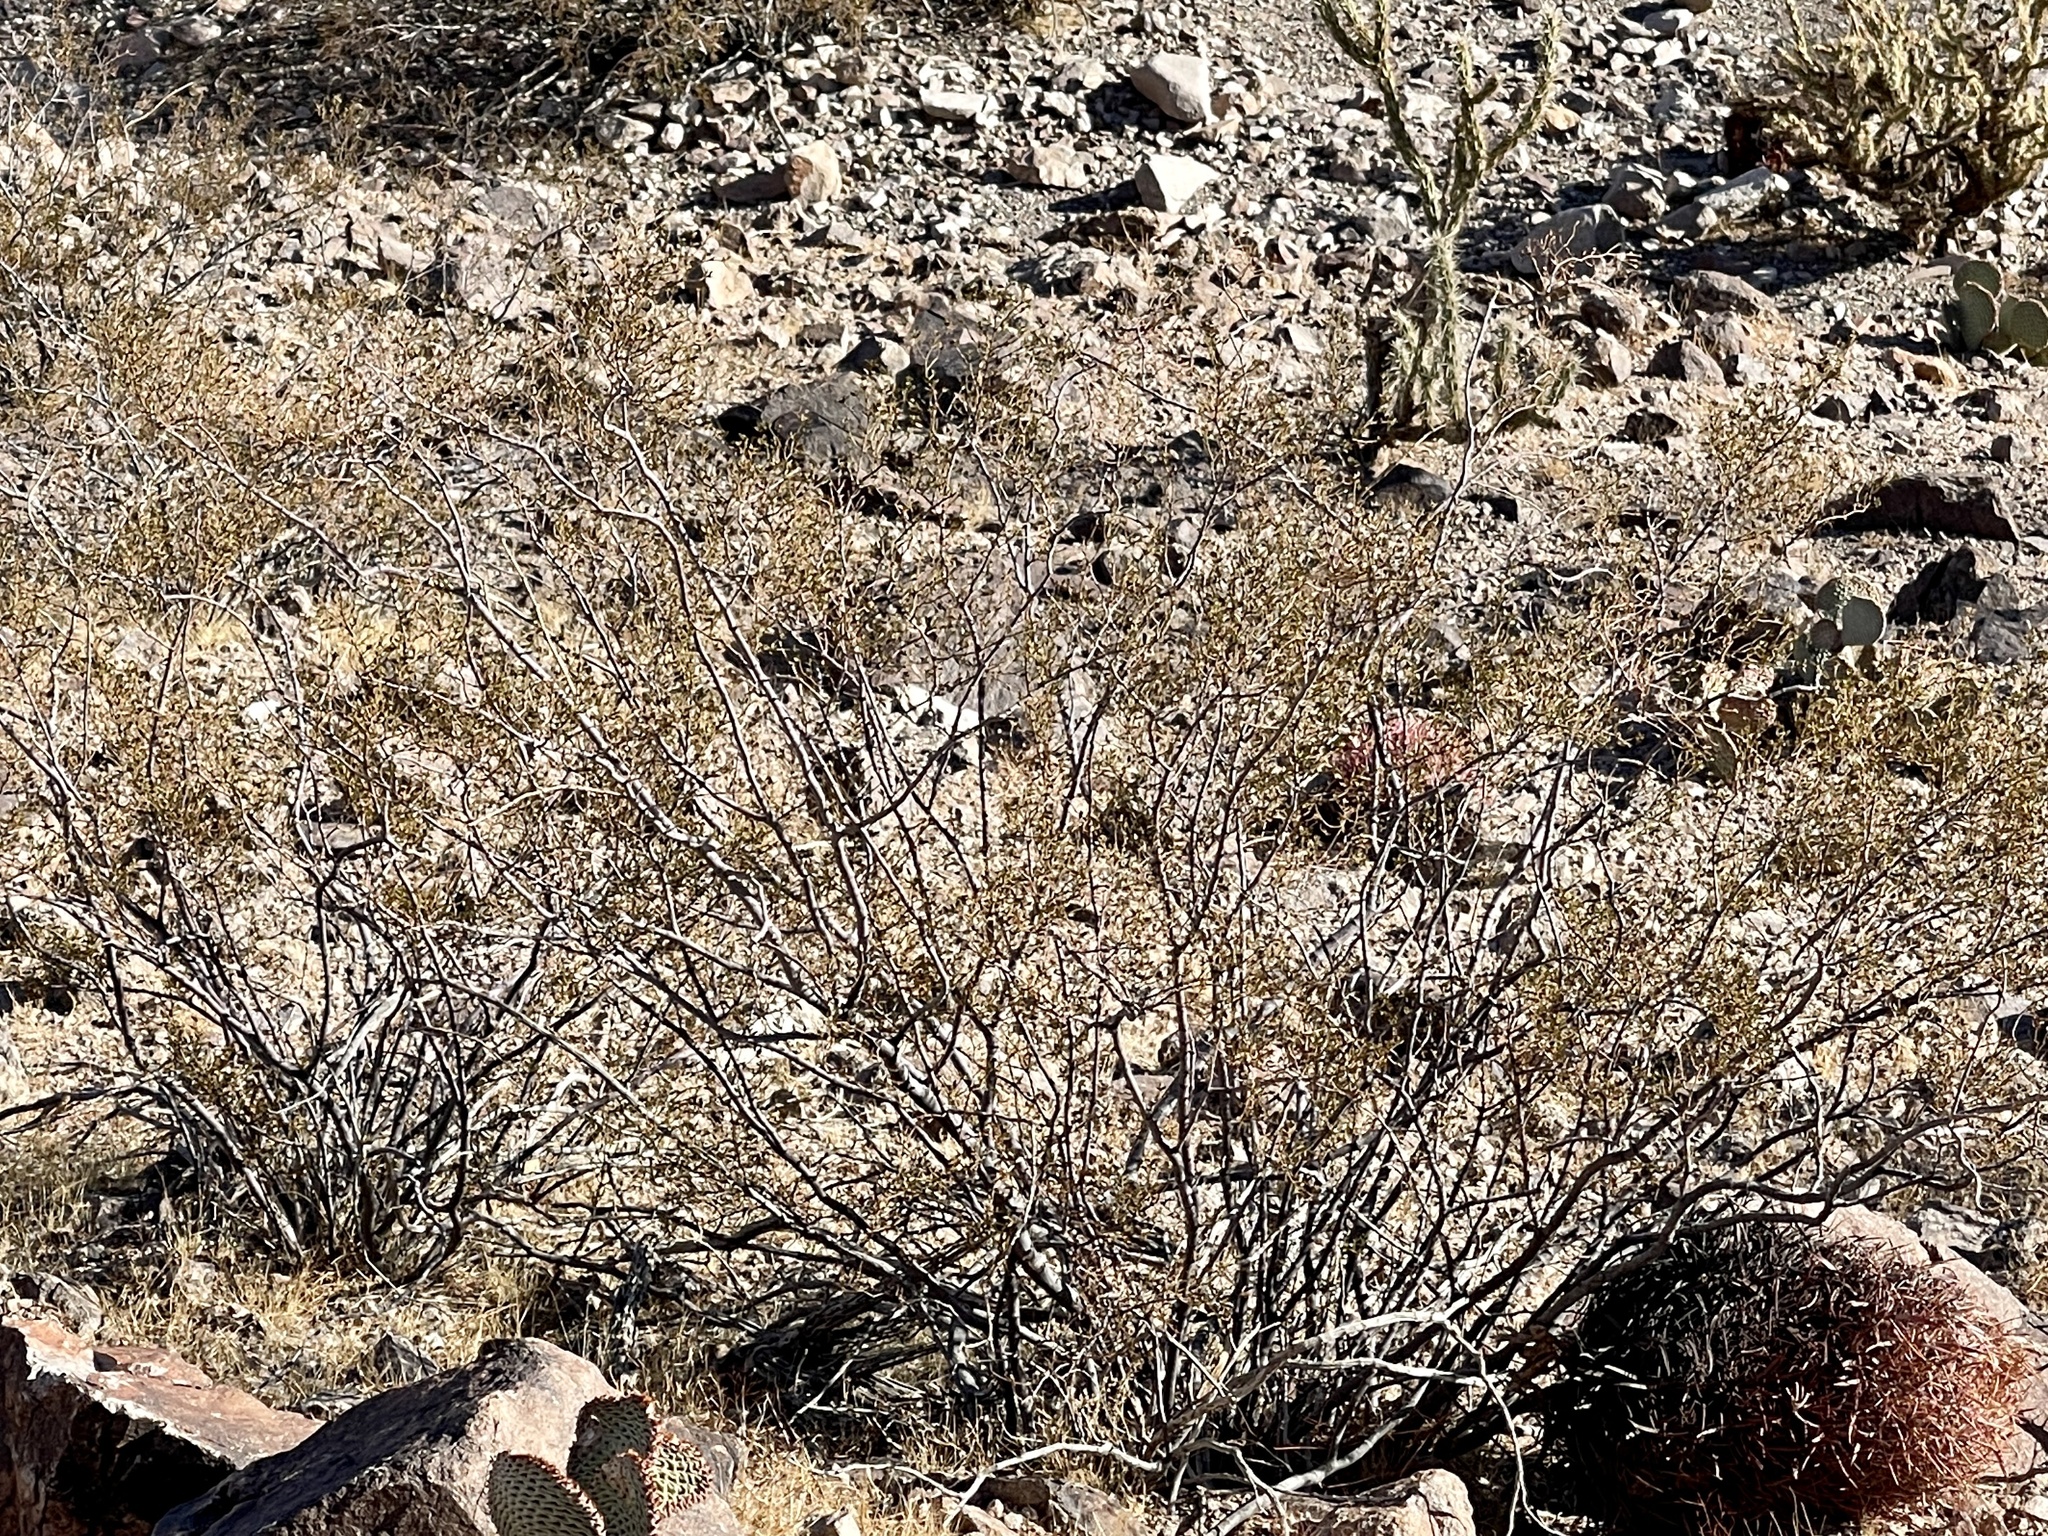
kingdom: Plantae
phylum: Tracheophyta
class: Magnoliopsida
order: Zygophyllales
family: Zygophyllaceae
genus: Larrea
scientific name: Larrea tridentata
